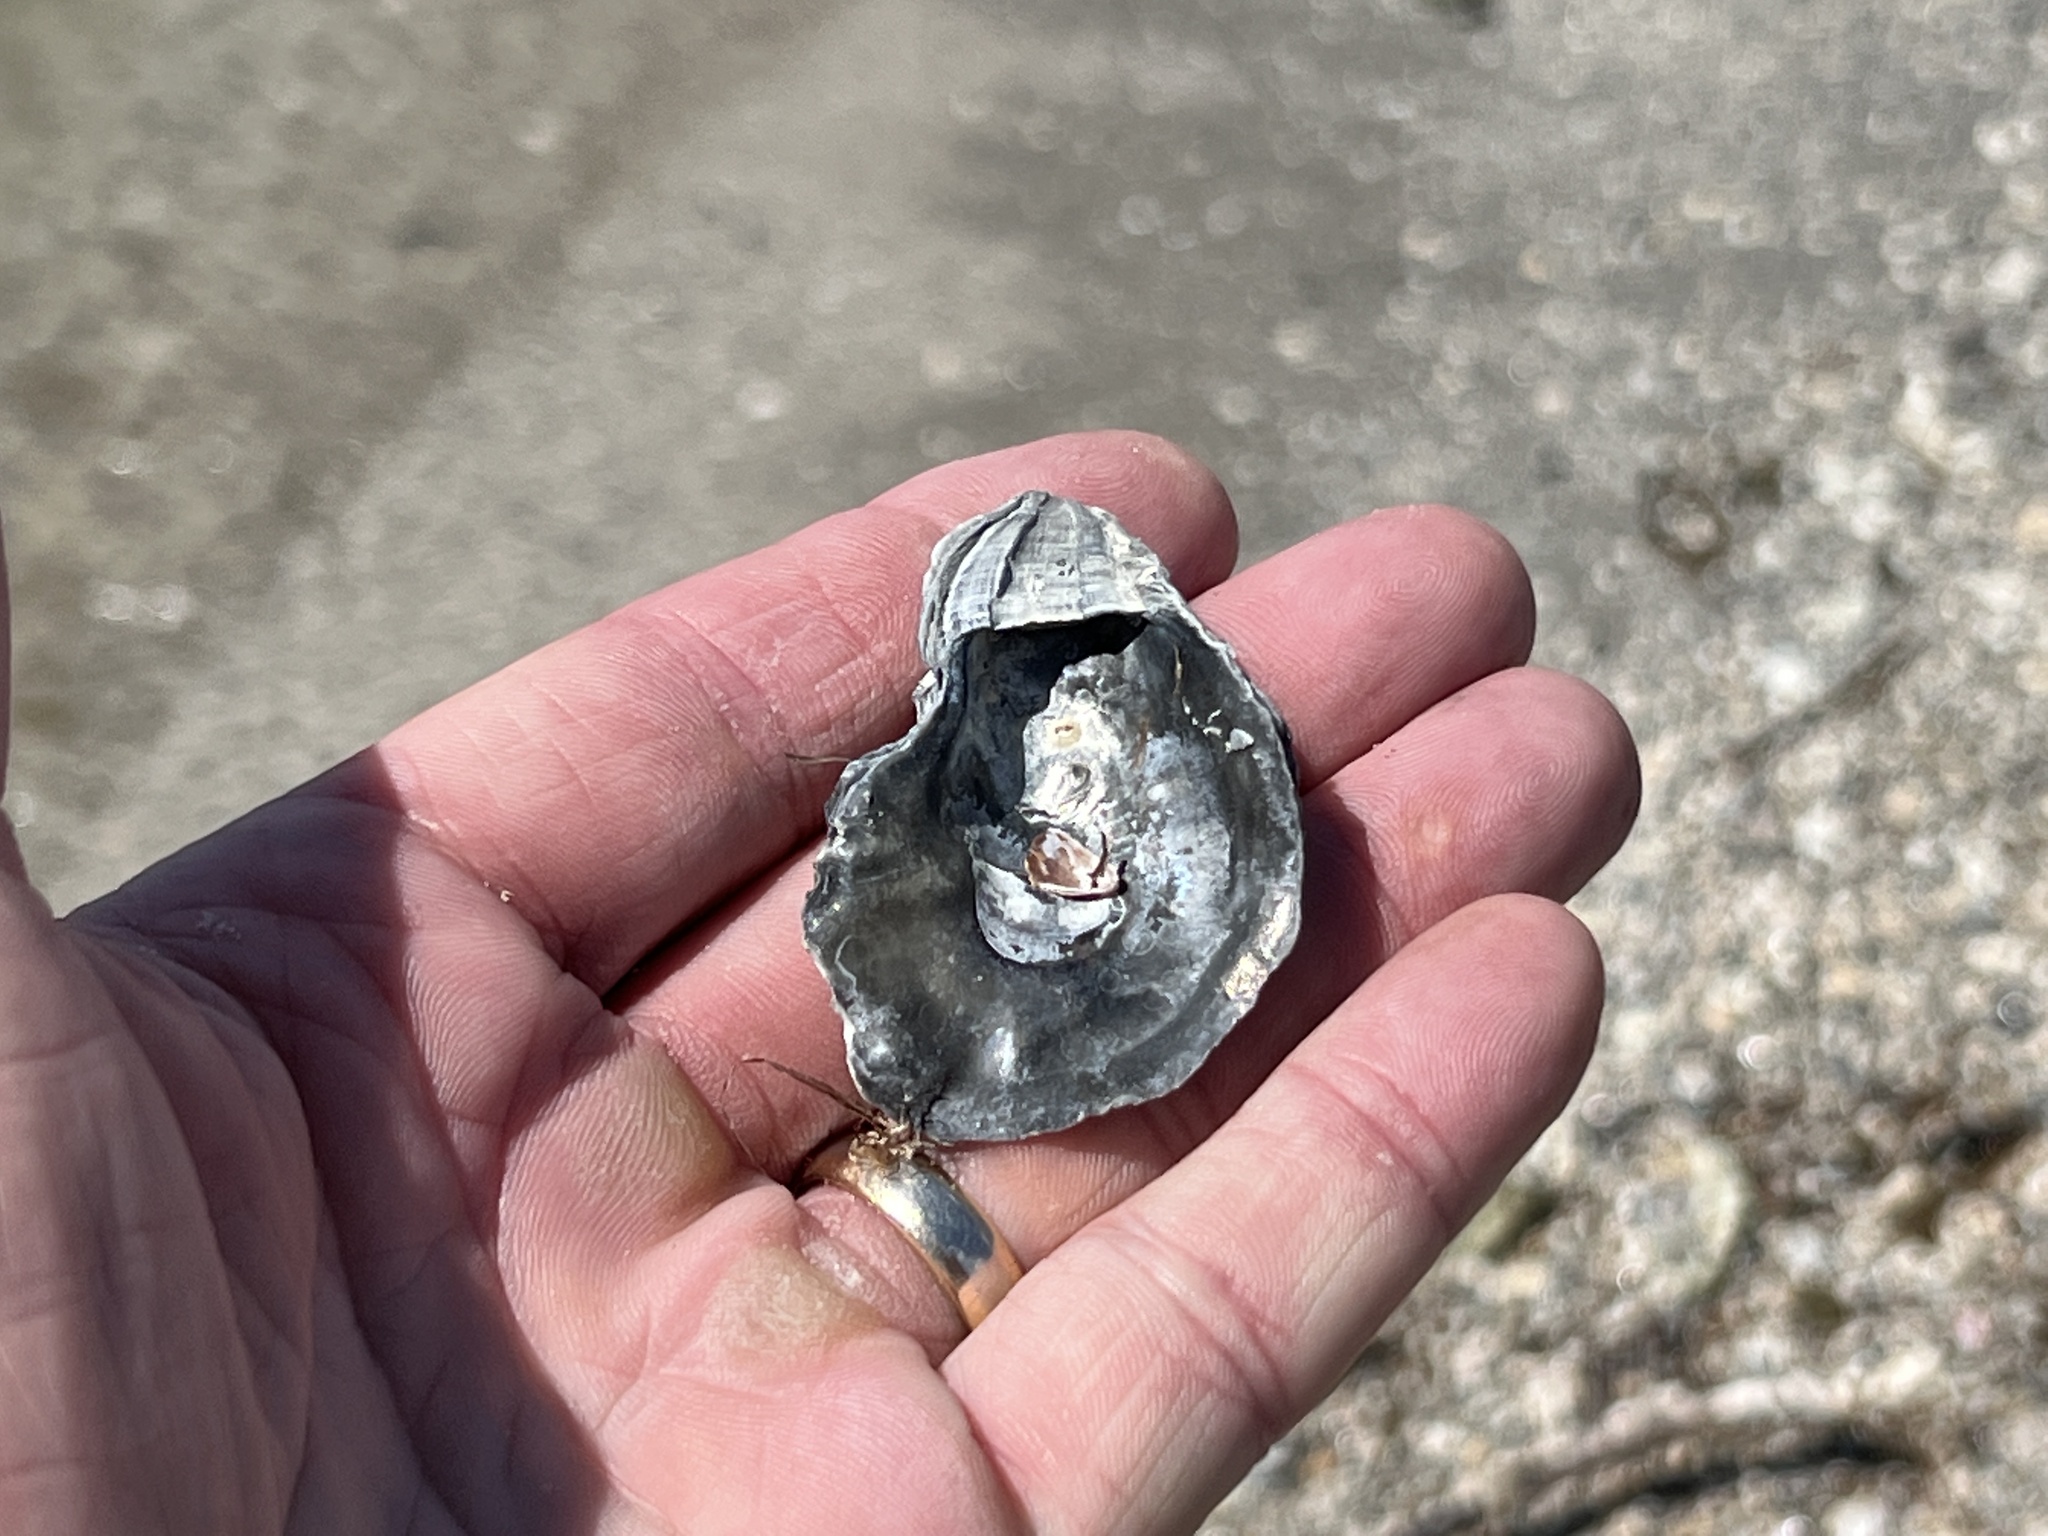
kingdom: Animalia
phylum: Mollusca
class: Bivalvia
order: Ostreida
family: Ostreidae
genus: Crassostrea
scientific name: Crassostrea virginica
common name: American oyster
